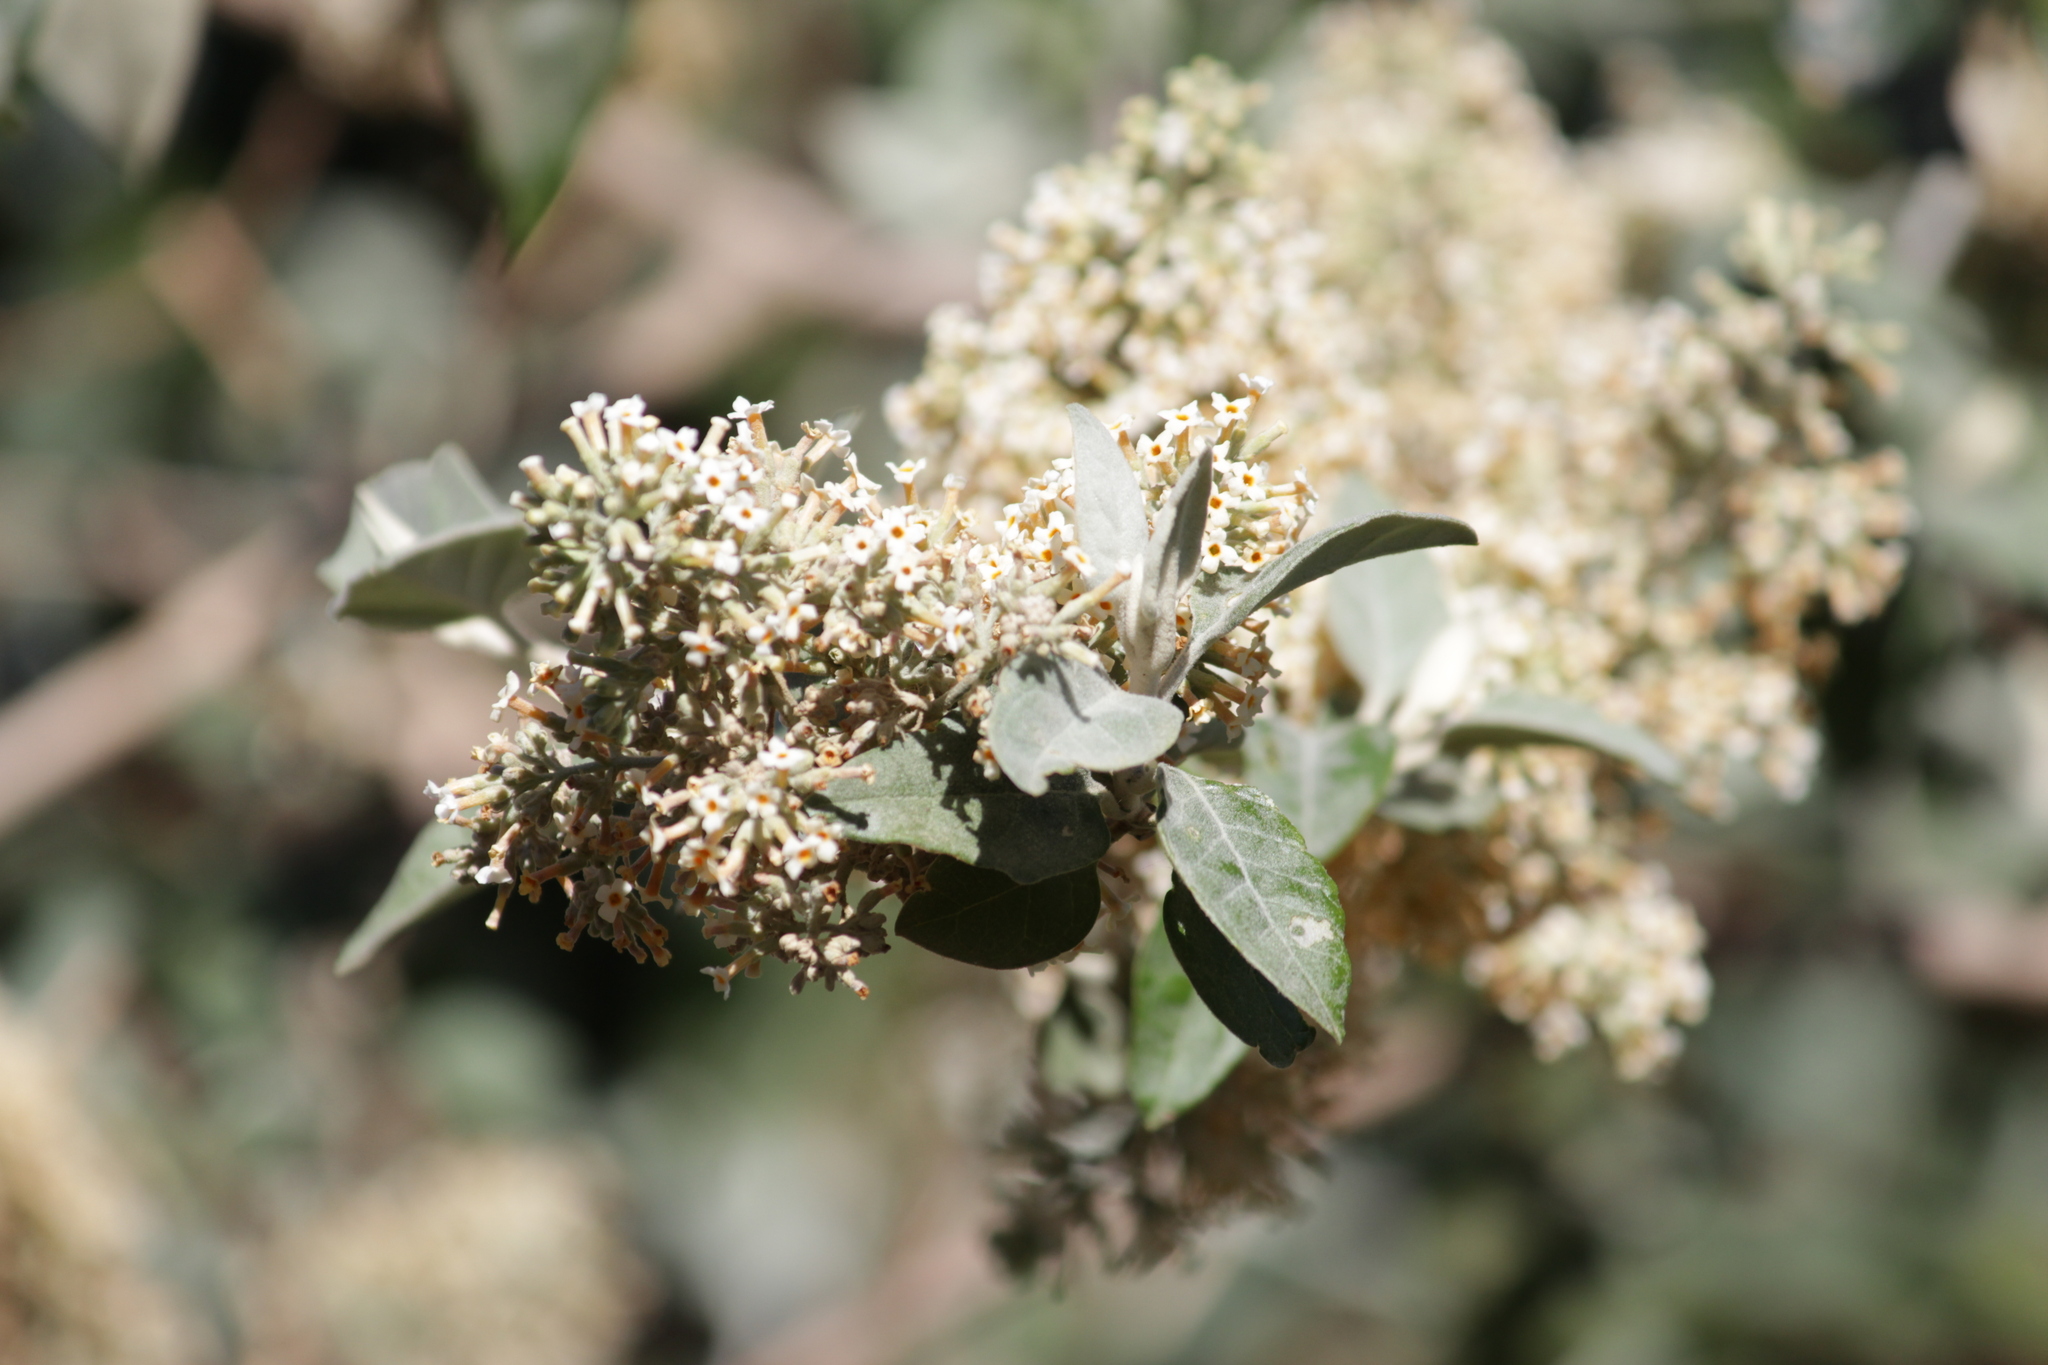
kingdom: Plantae
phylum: Tracheophyta
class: Magnoliopsida
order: Lamiales
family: Scrophulariaceae
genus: Buddleja
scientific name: Buddleja pulchella
